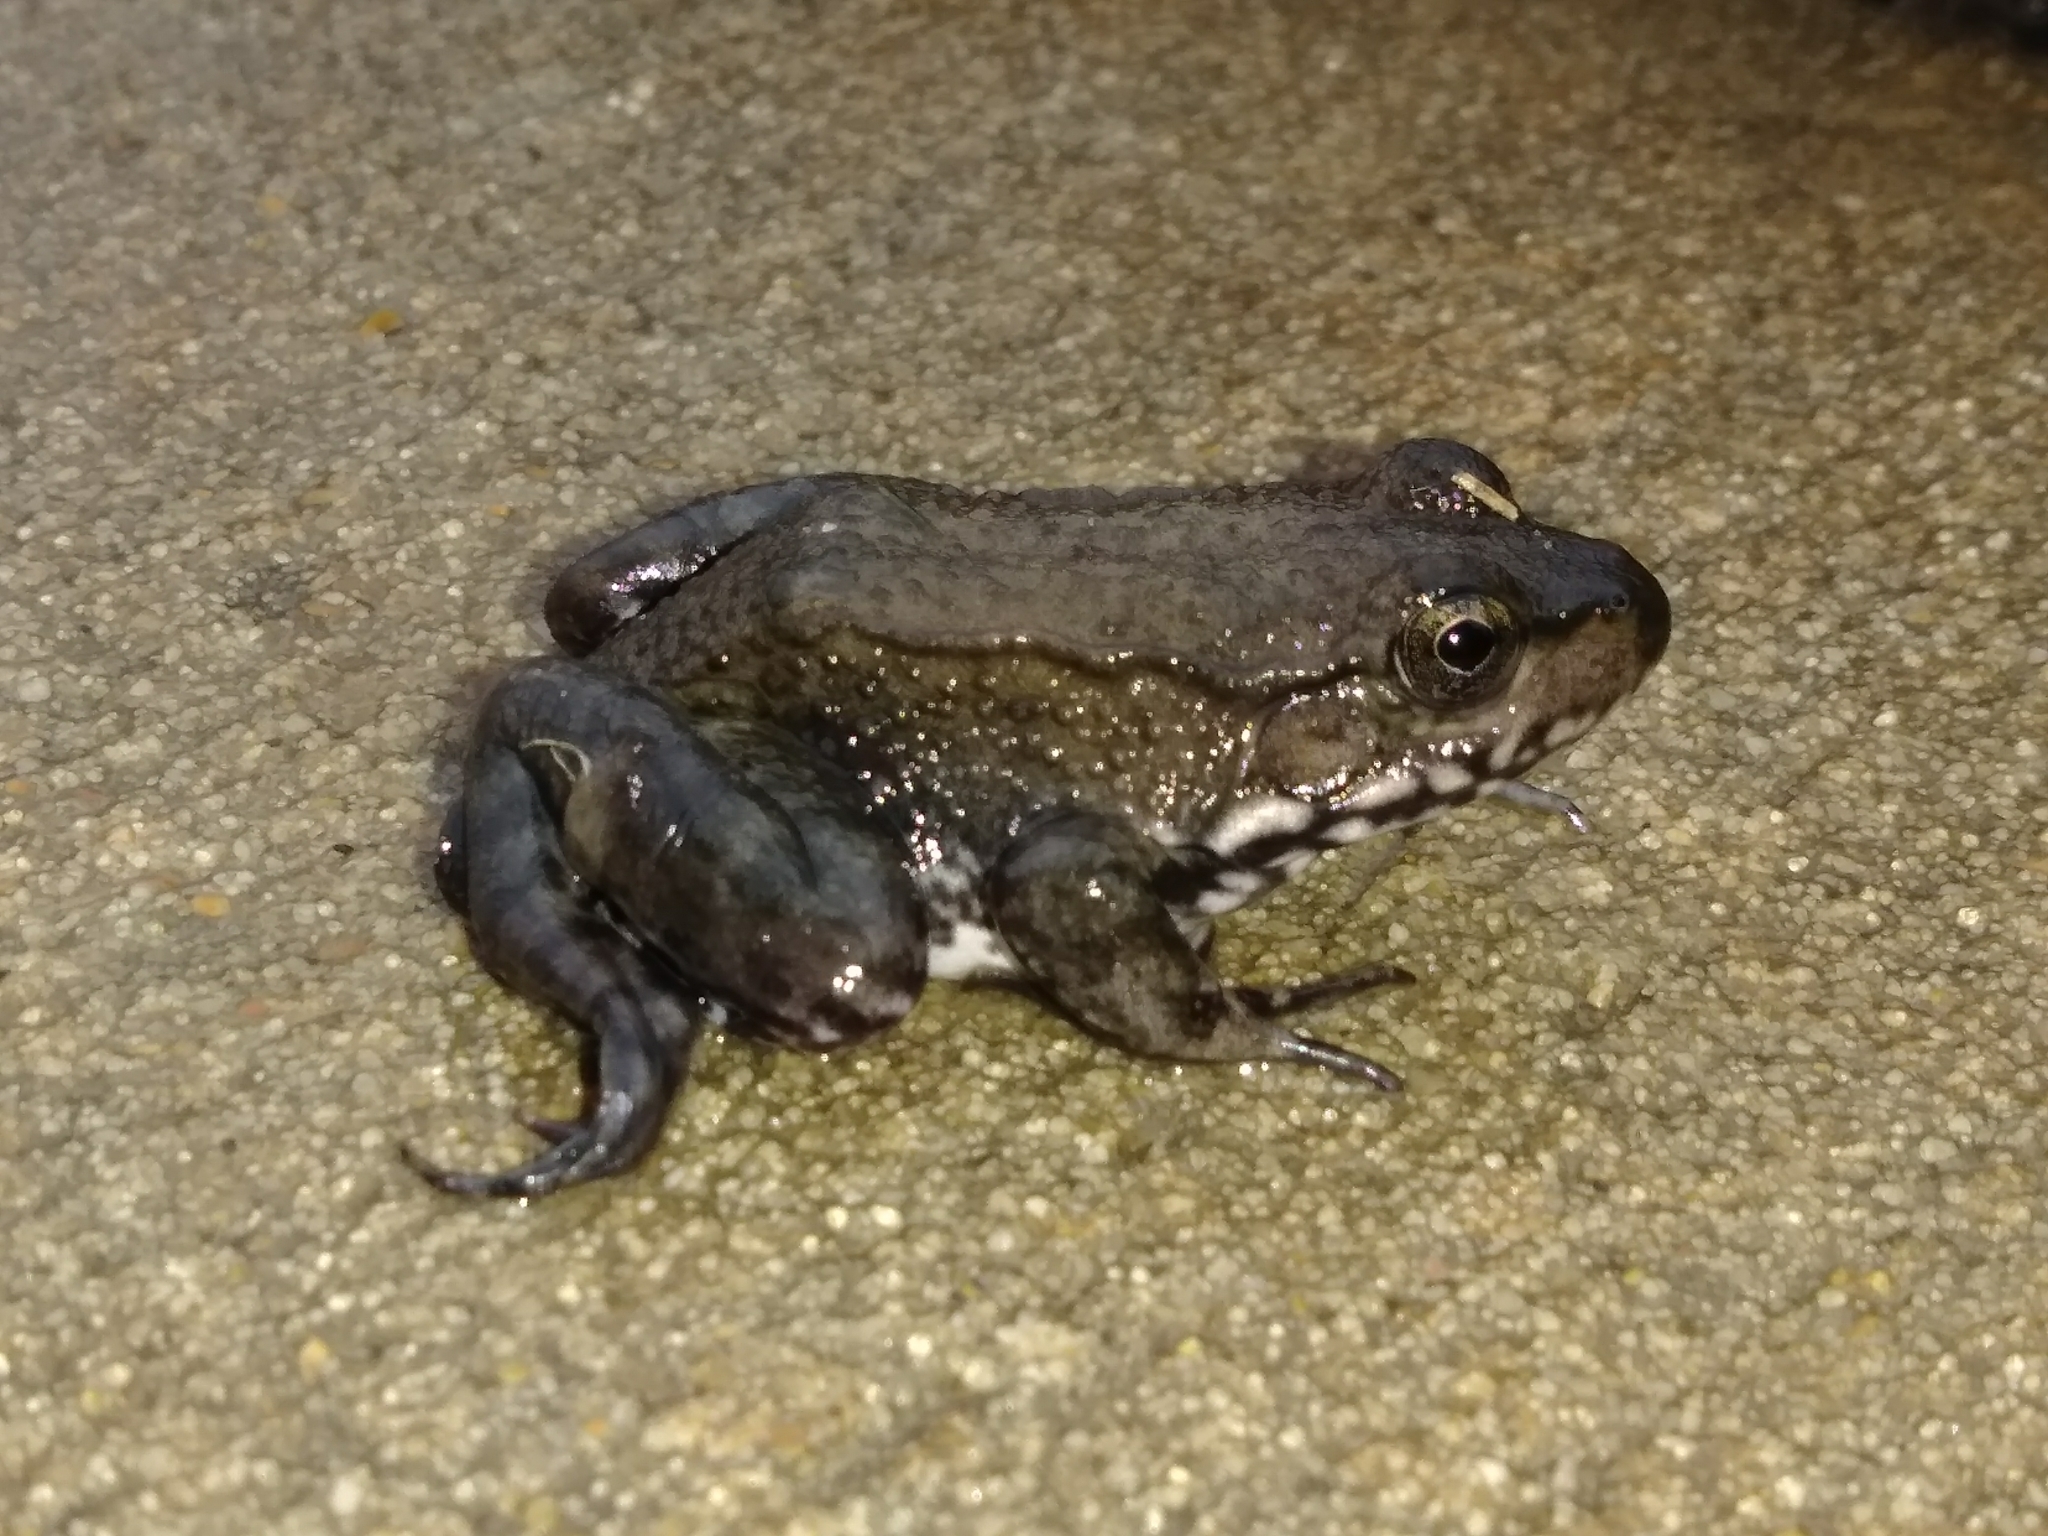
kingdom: Animalia
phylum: Chordata
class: Amphibia
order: Anura
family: Ranidae
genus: Lithobates
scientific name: Lithobates clamitans
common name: Green frog
